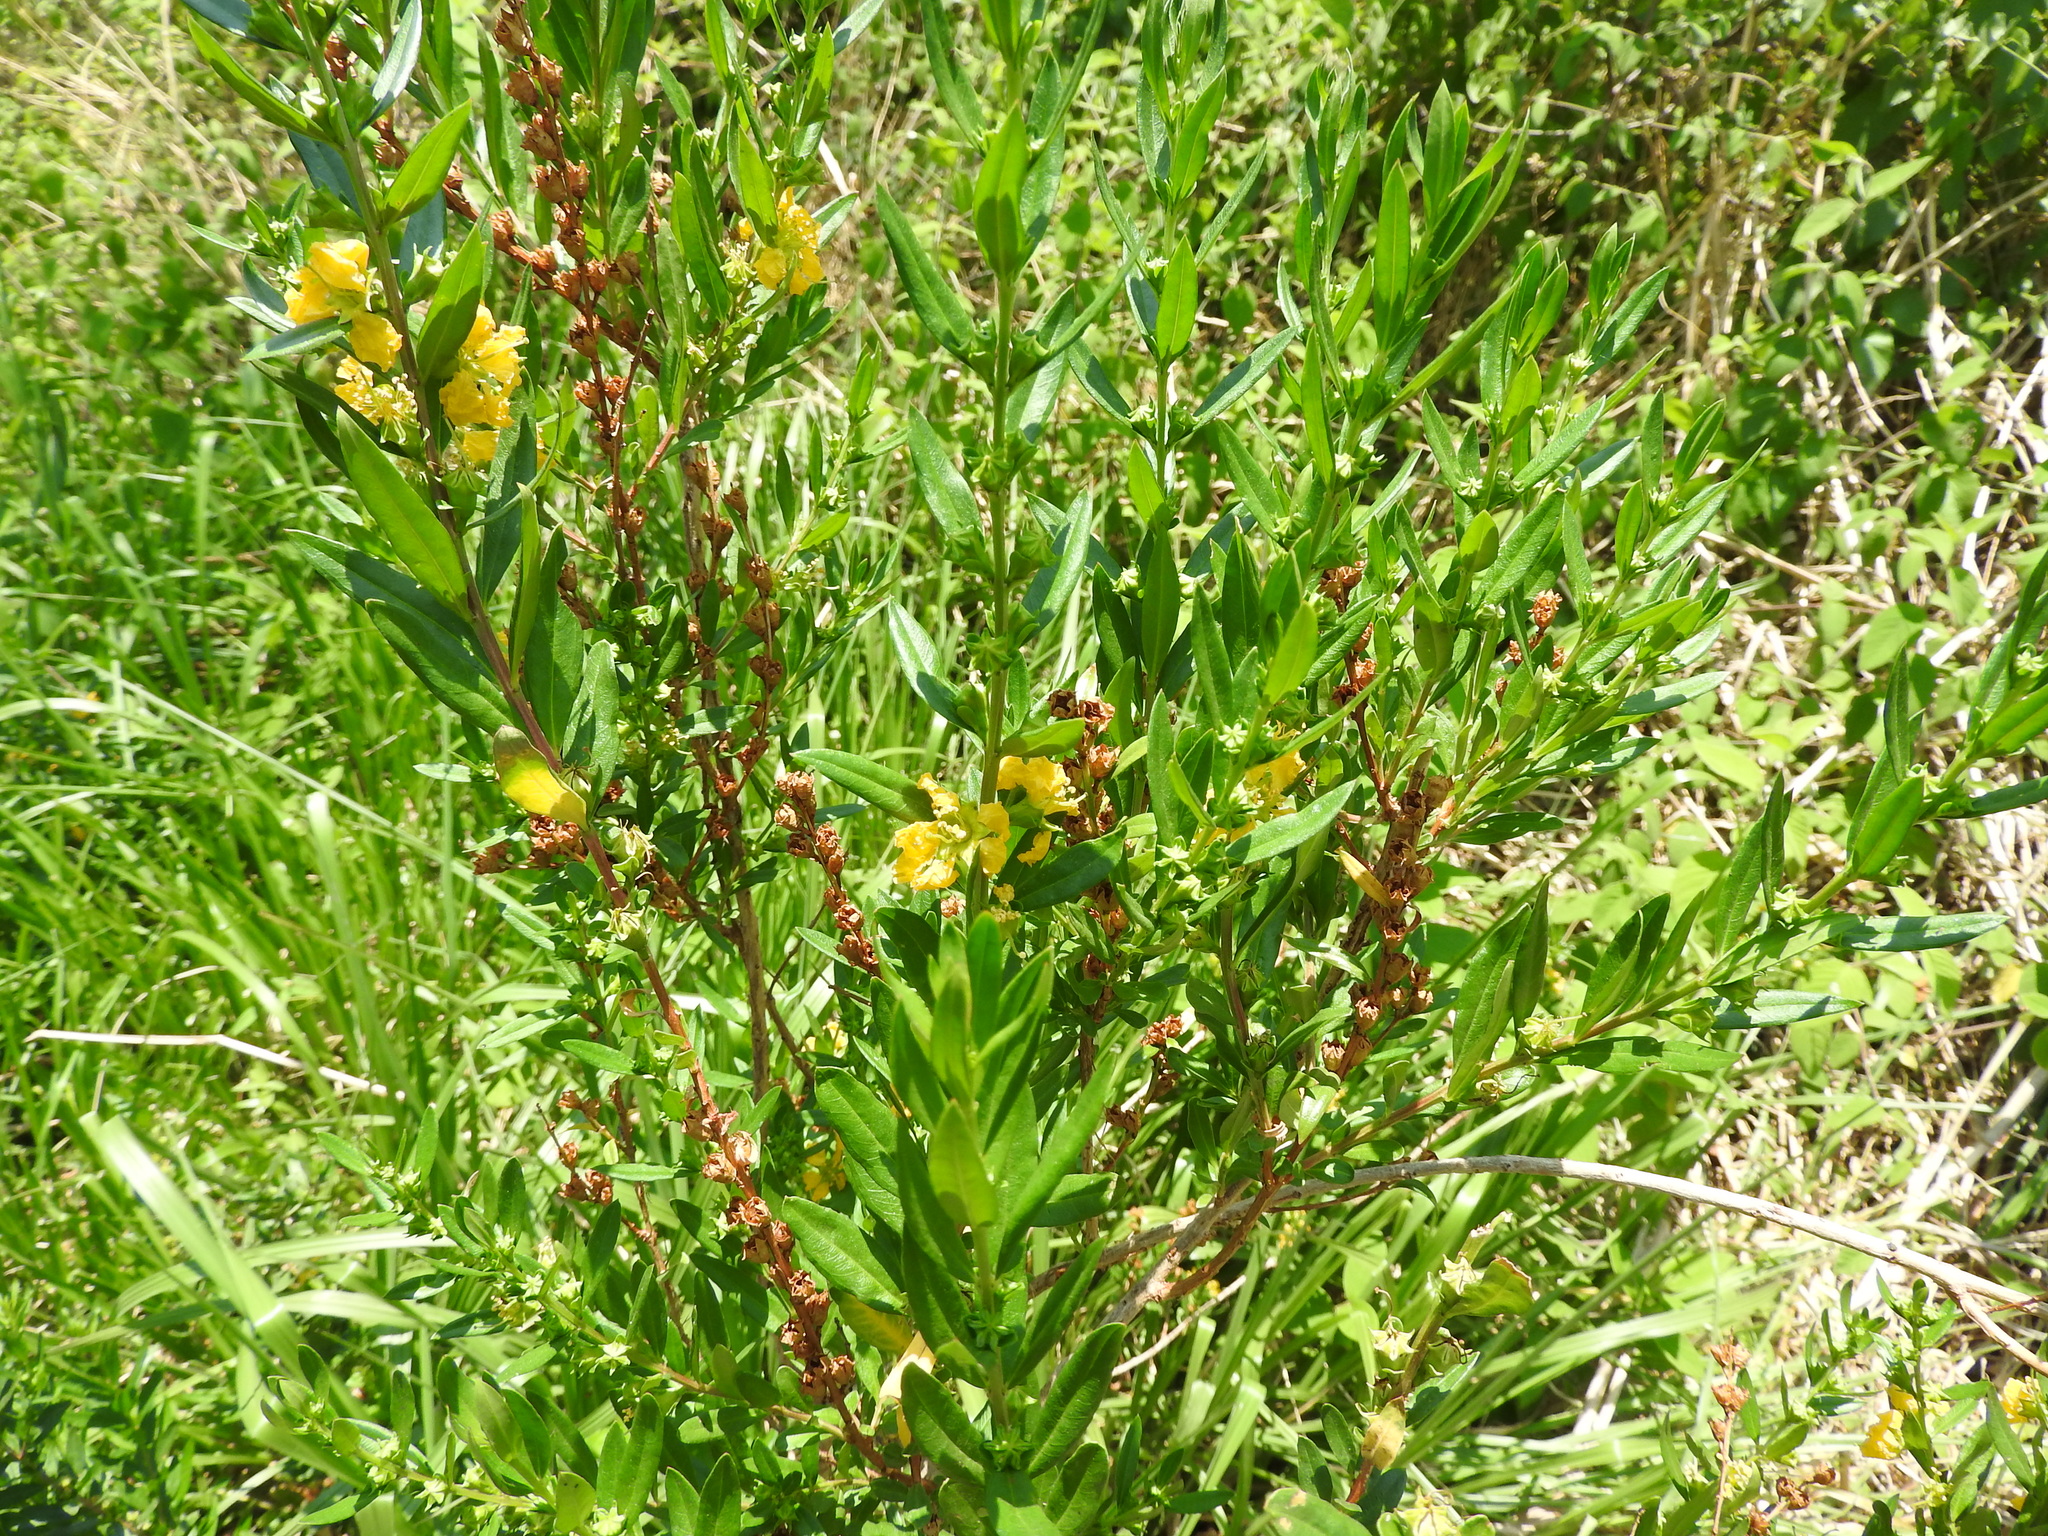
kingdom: Plantae
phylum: Tracheophyta
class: Magnoliopsida
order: Myrtales
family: Lythraceae
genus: Heimia
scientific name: Heimia salicifolia
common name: Willow-leaf heimia
